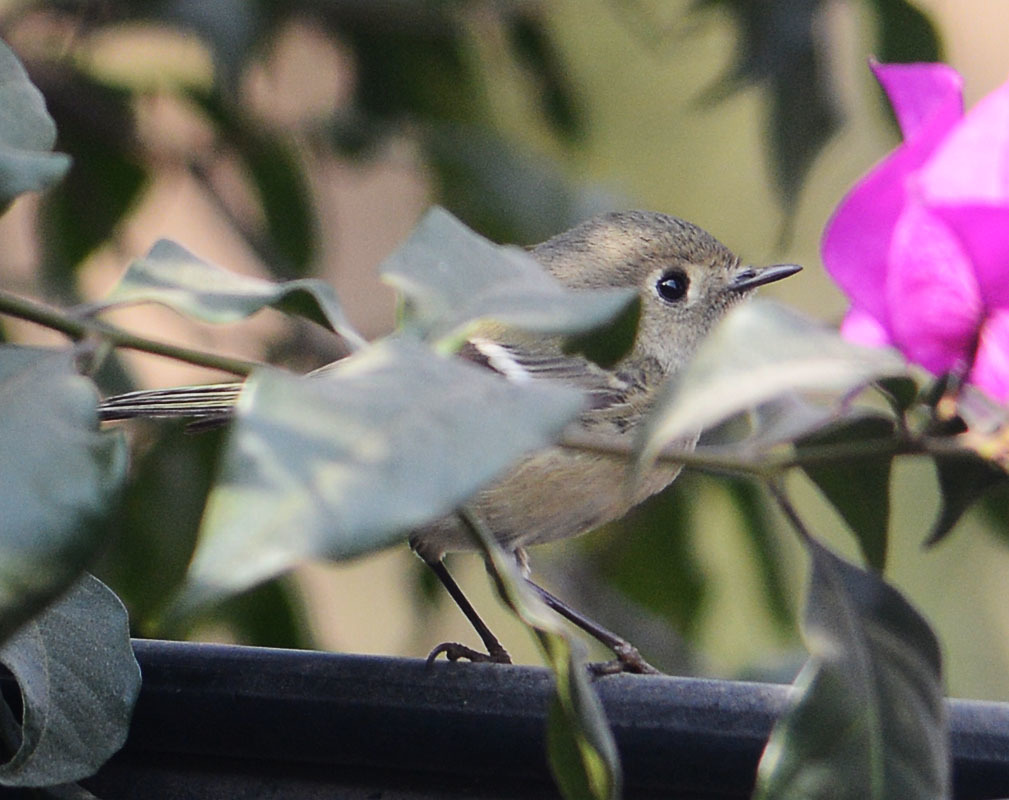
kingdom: Animalia
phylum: Chordata
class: Aves
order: Passeriformes
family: Regulidae
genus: Regulus
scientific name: Regulus calendula
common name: Ruby-crowned kinglet
